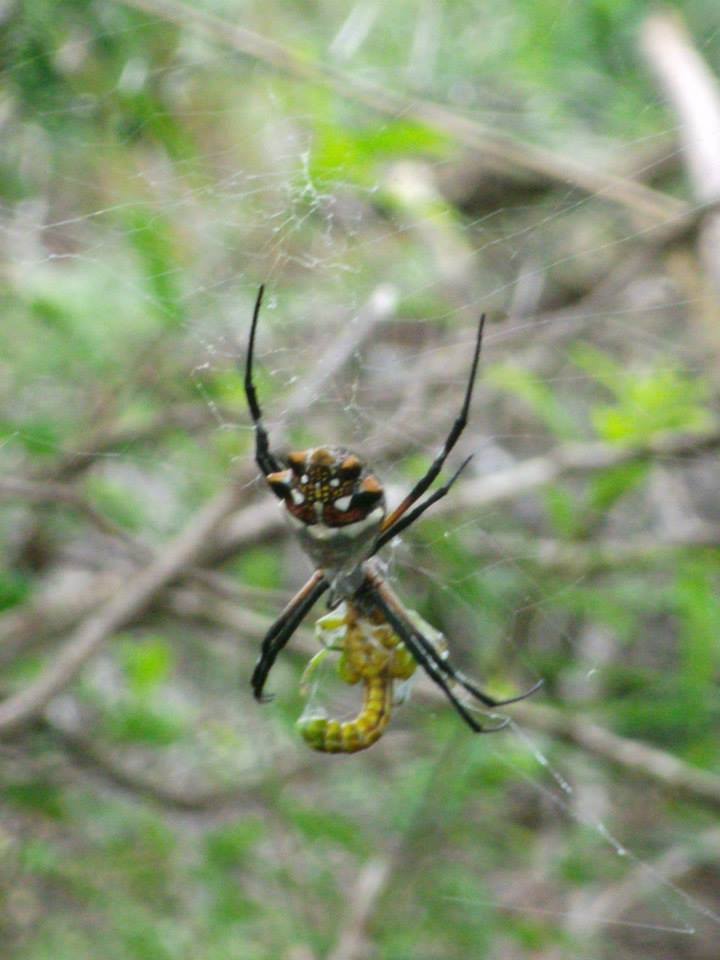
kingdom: Animalia
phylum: Arthropoda
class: Arachnida
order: Araneae
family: Araneidae
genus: Argiope
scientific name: Argiope argentata
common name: Orb weavers
